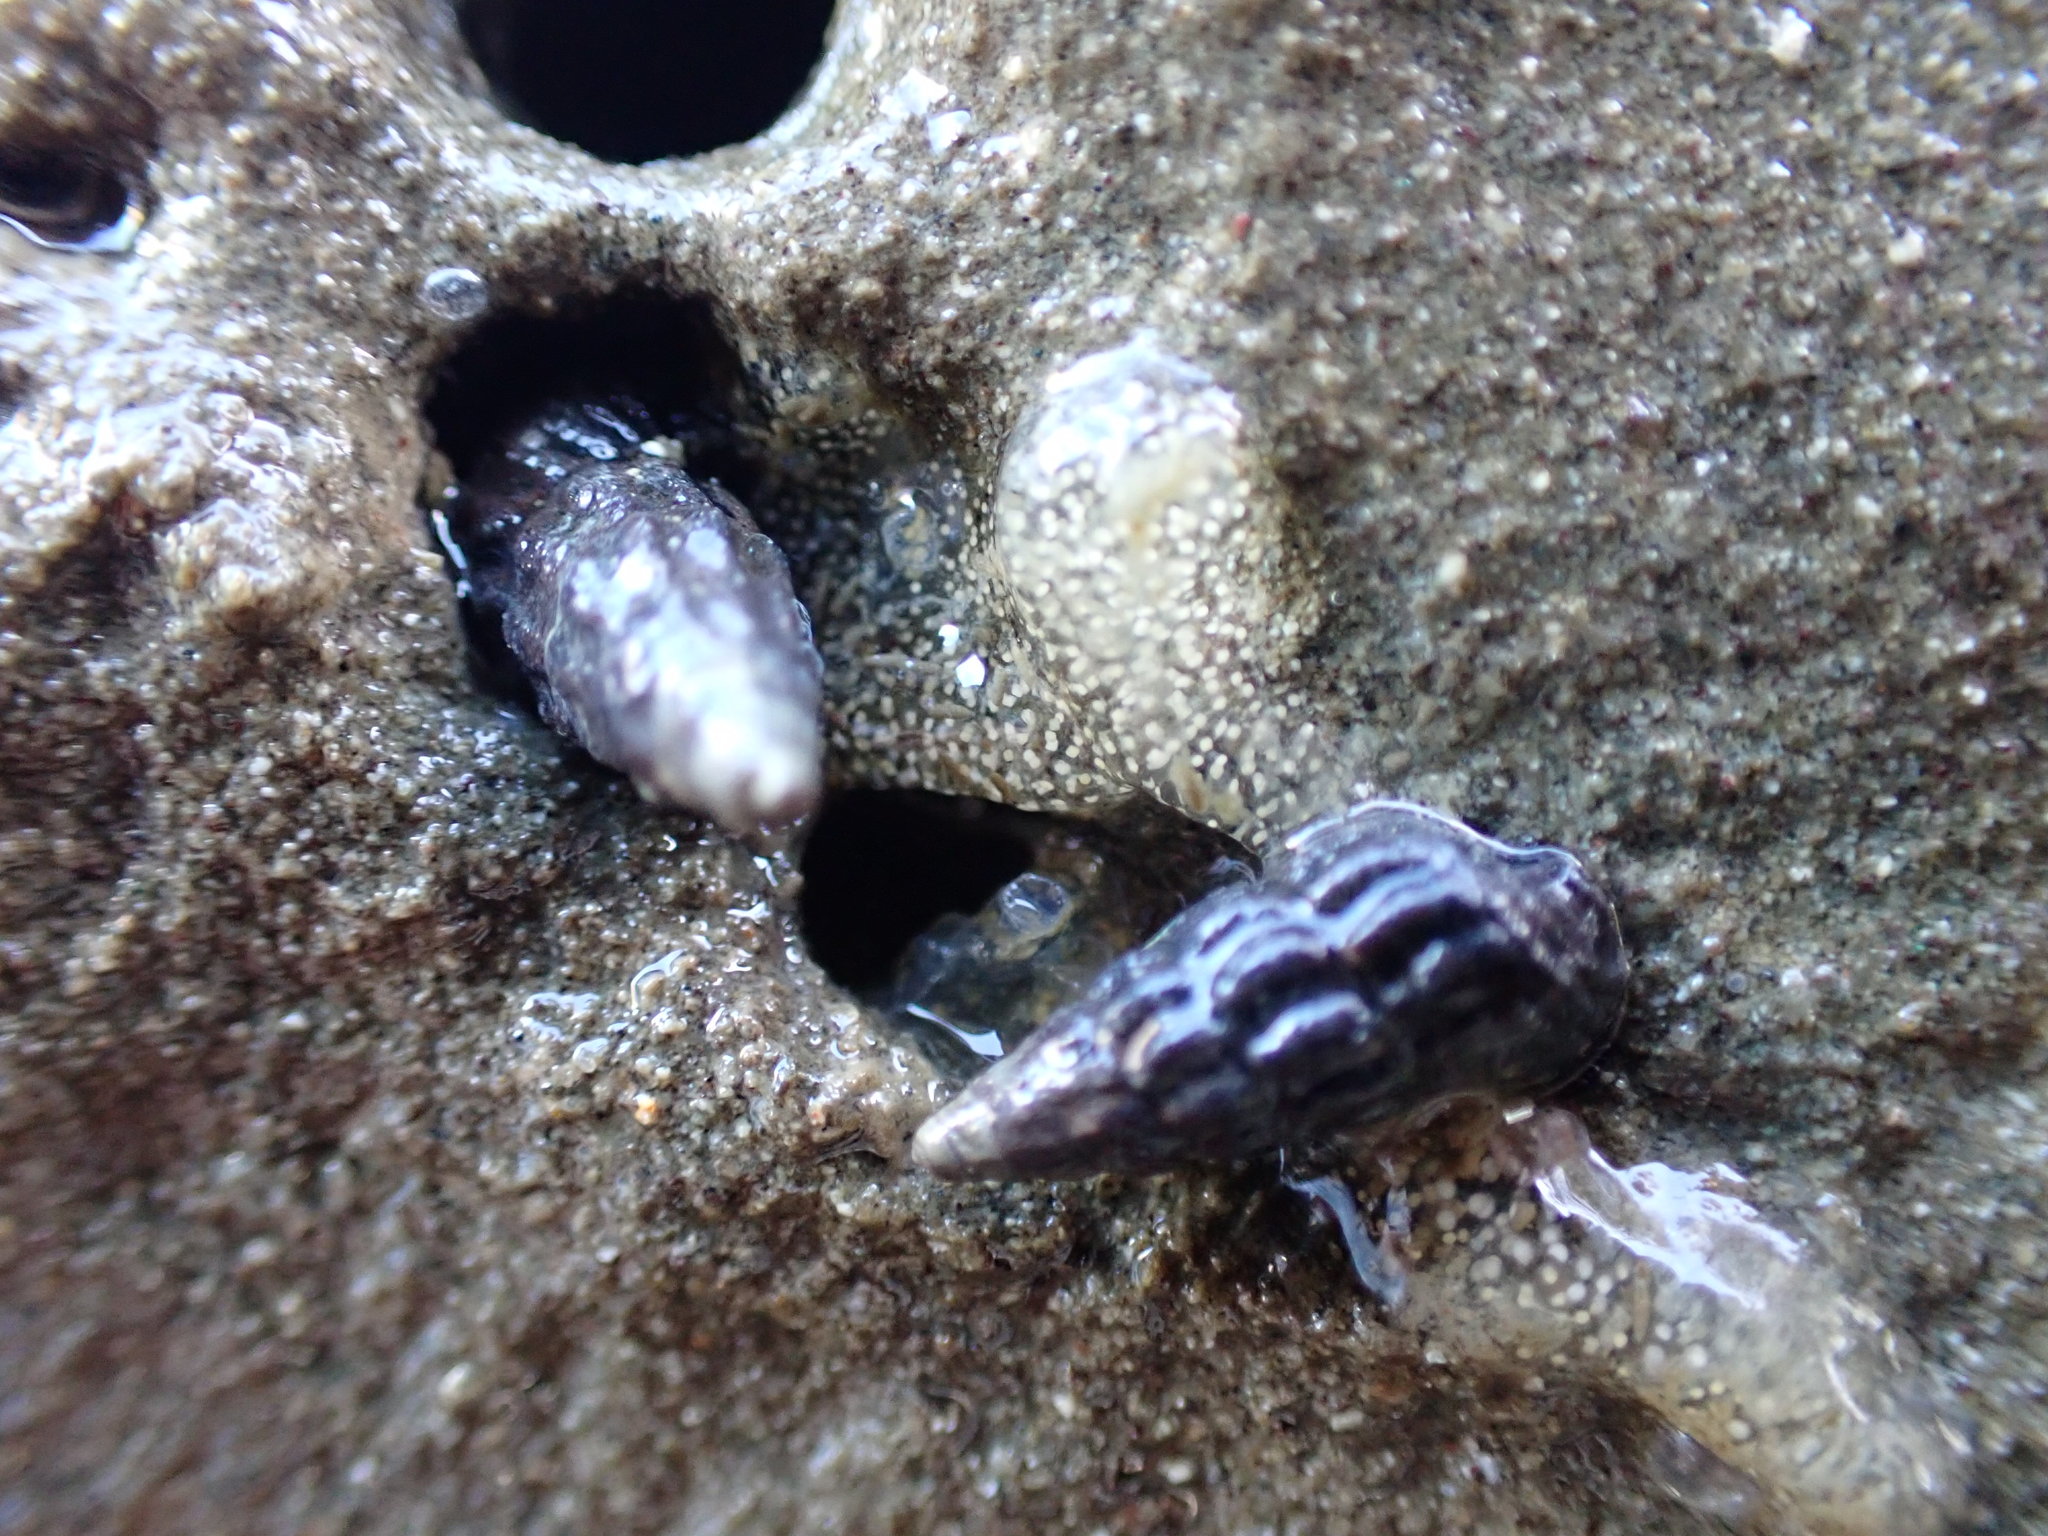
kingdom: Animalia
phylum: Mollusca
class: Gastropoda
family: Batillariidae
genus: Zeacumantus
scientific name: Zeacumantus subcarinatus
